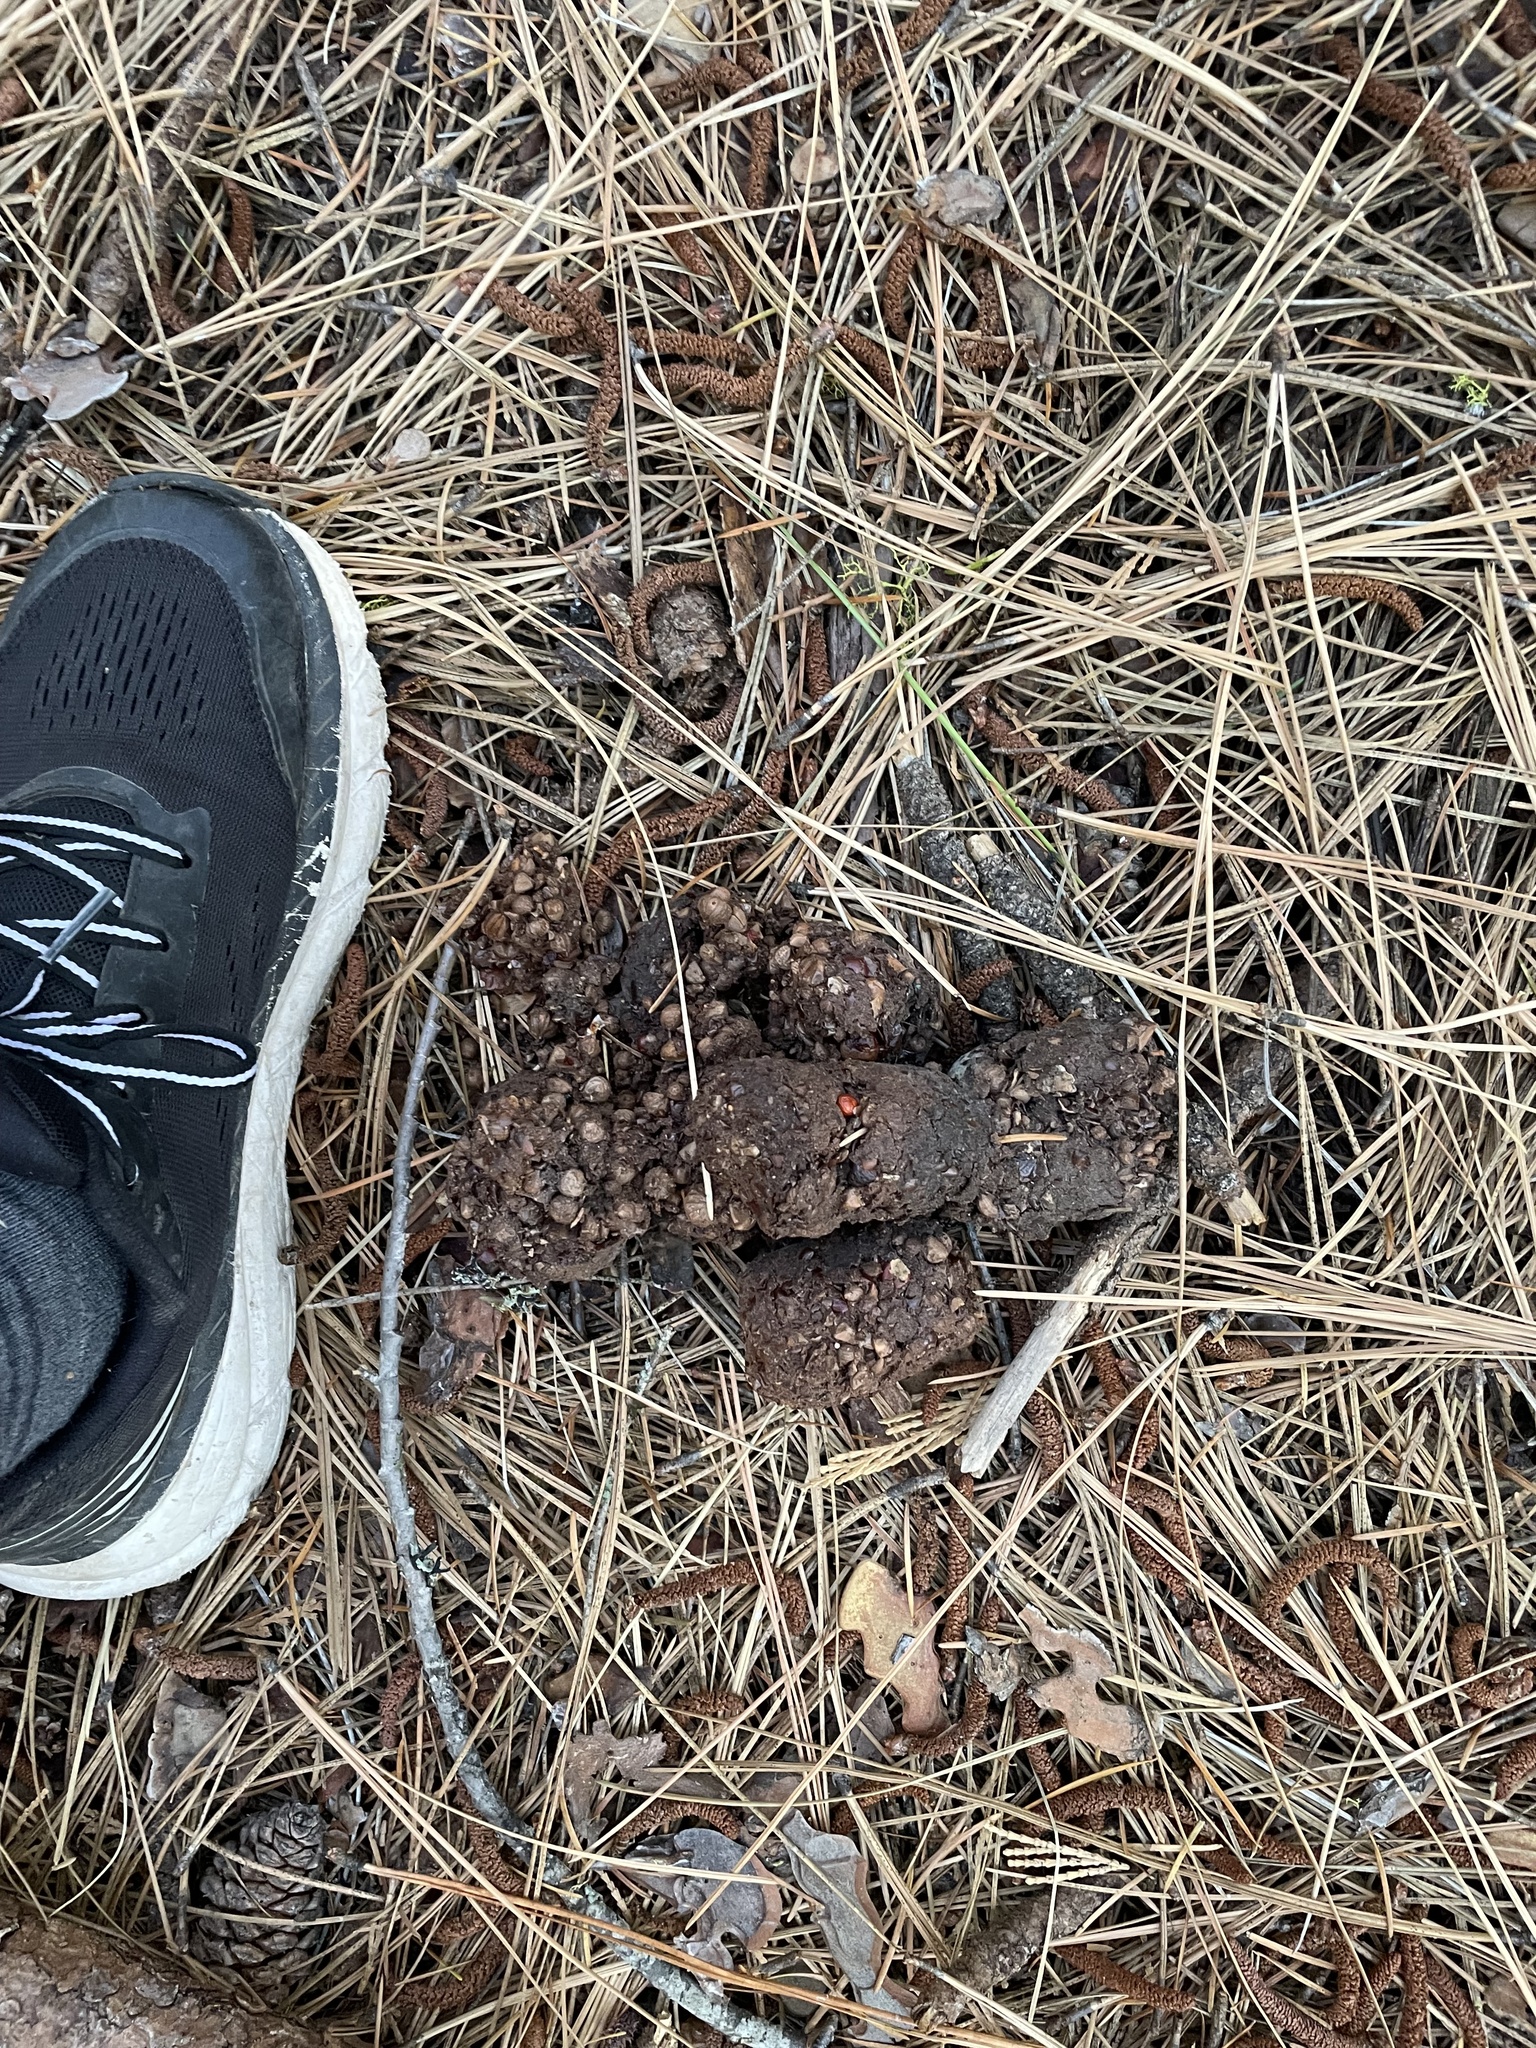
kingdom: Animalia
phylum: Chordata
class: Mammalia
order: Carnivora
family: Ursidae
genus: Ursus
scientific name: Ursus americanus
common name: American black bear
